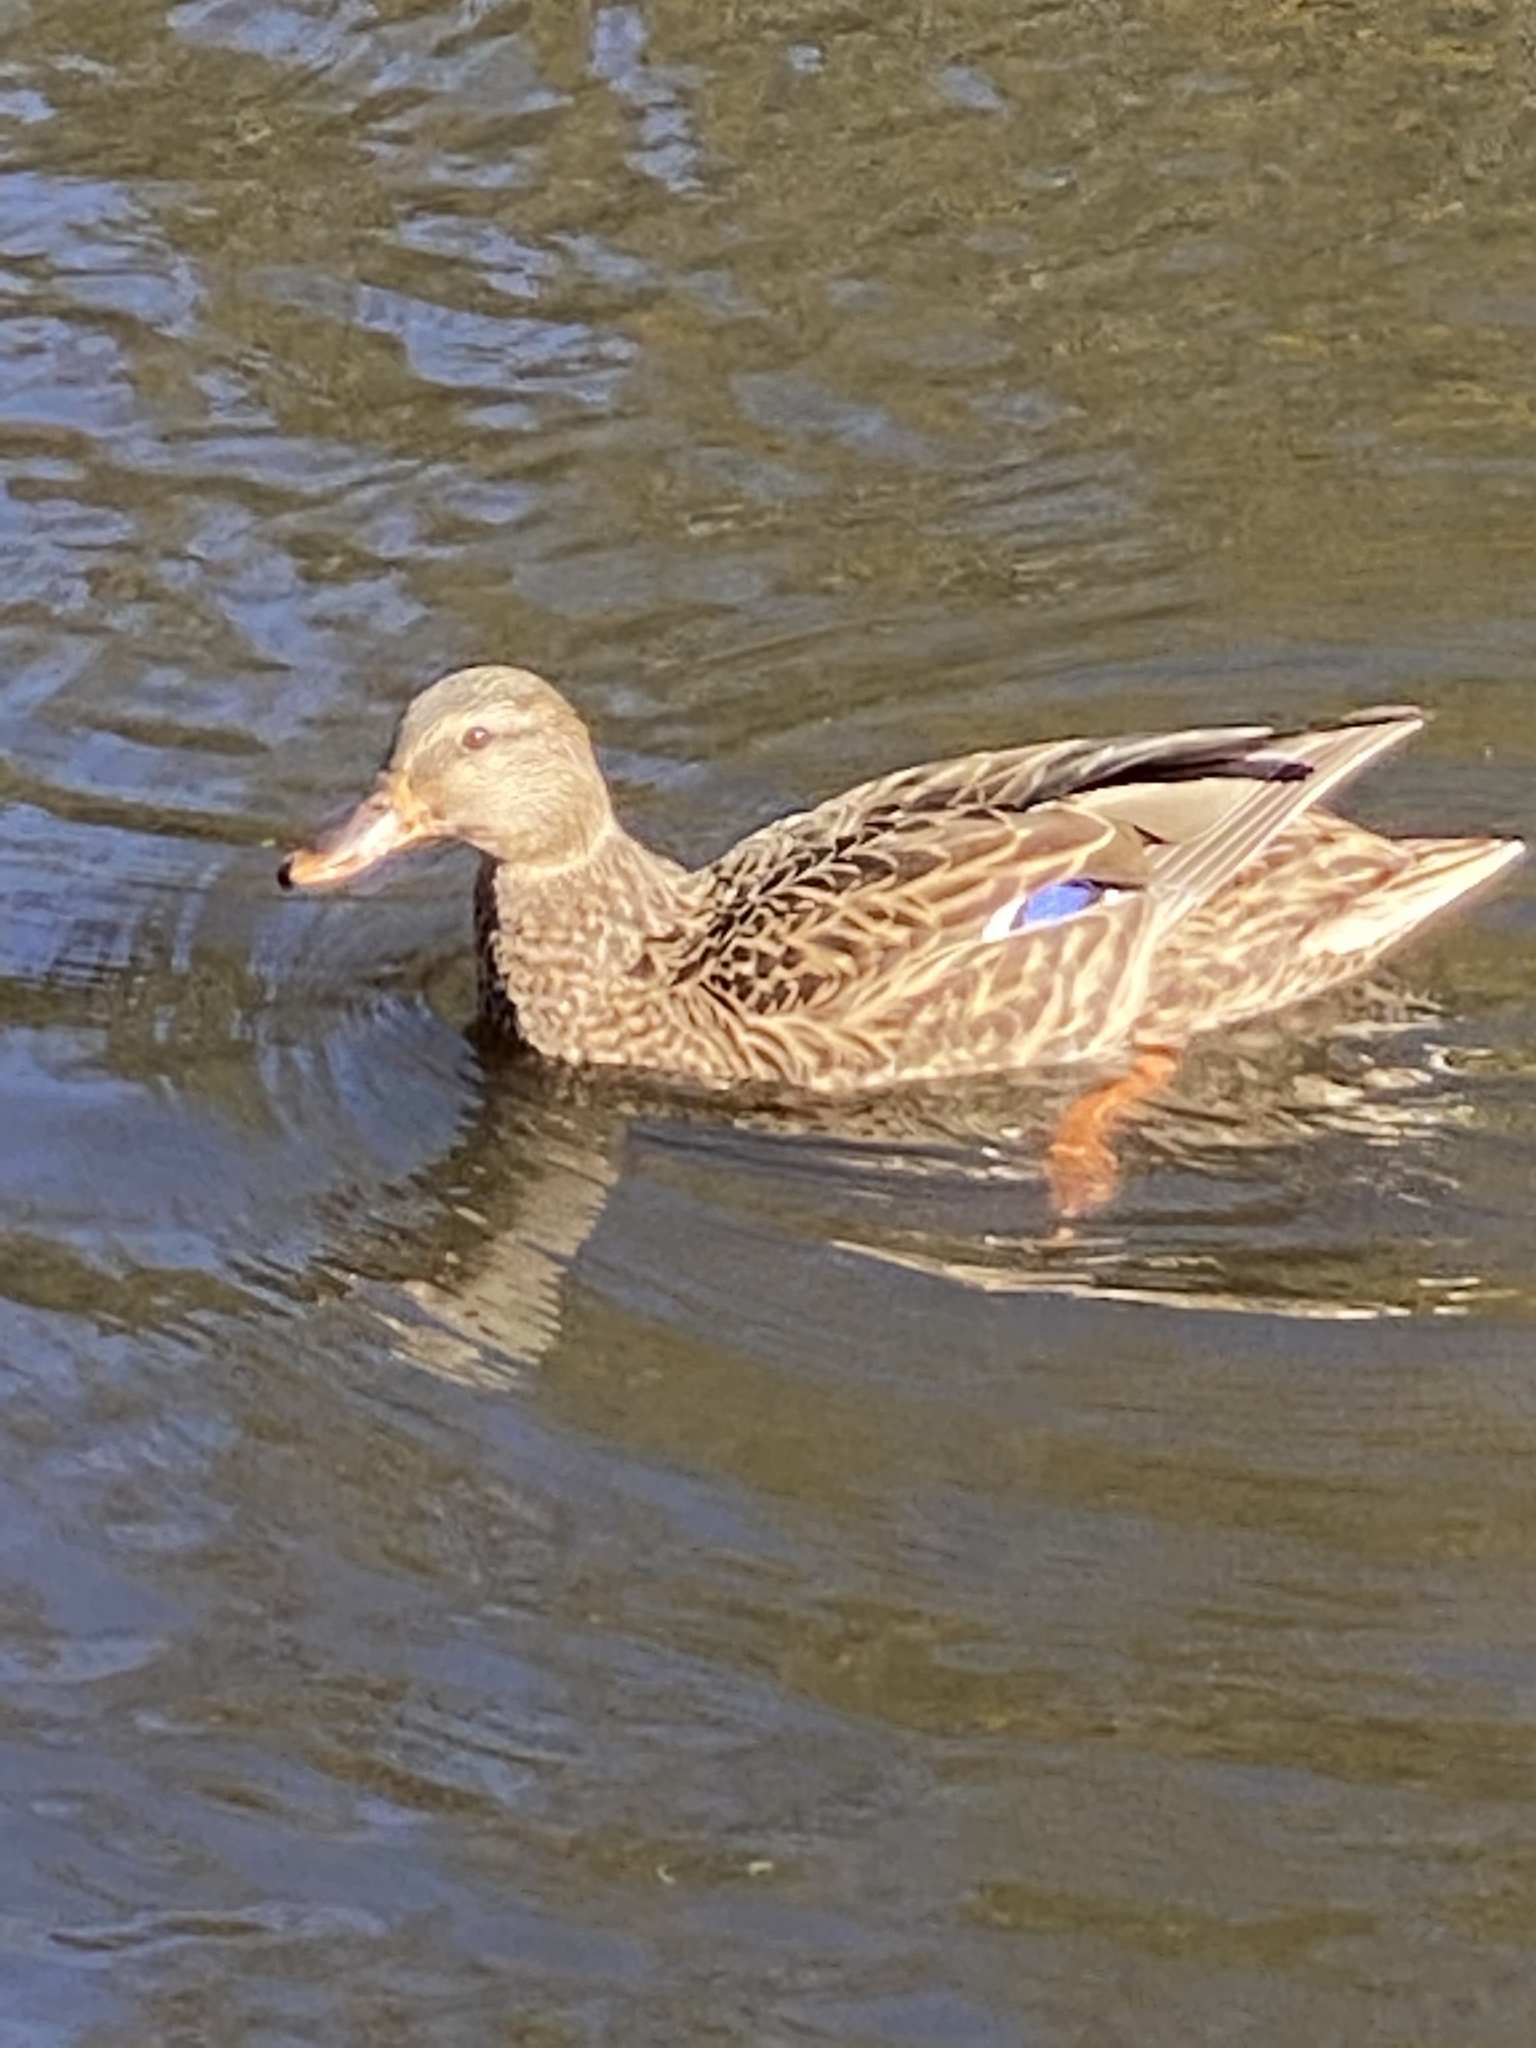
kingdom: Animalia
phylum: Chordata
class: Aves
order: Anseriformes
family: Anatidae
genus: Anas
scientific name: Anas platyrhynchos
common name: Mallard
